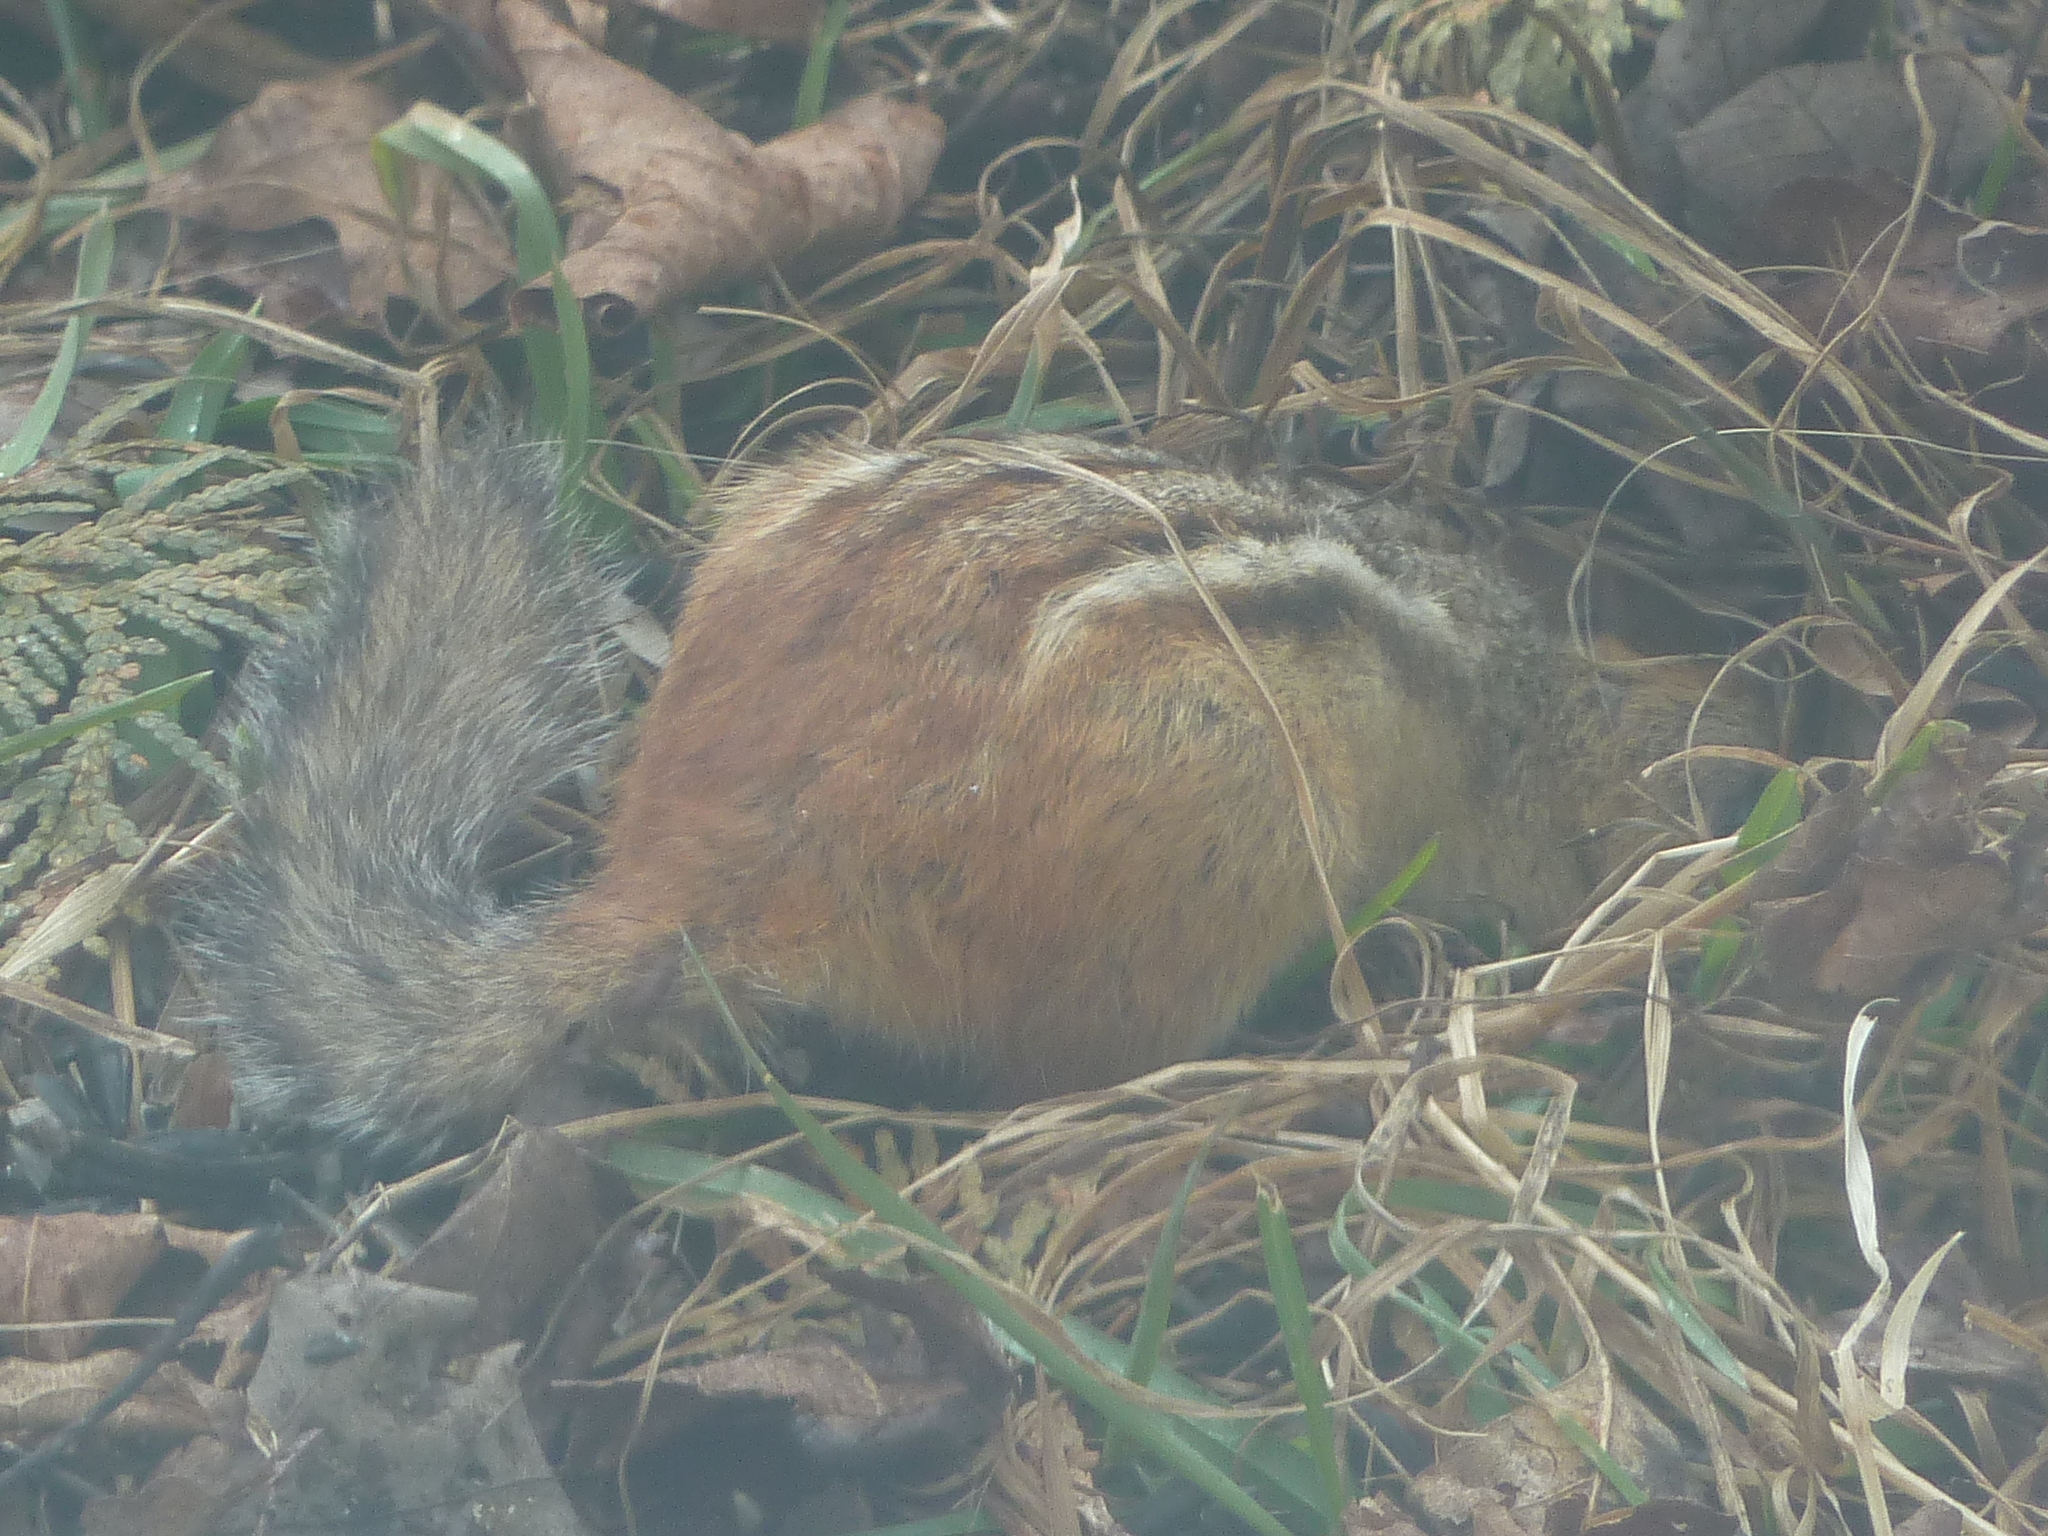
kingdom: Animalia
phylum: Chordata
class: Mammalia
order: Rodentia
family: Sciuridae
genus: Tamias
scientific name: Tamias striatus
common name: Eastern chipmunk
